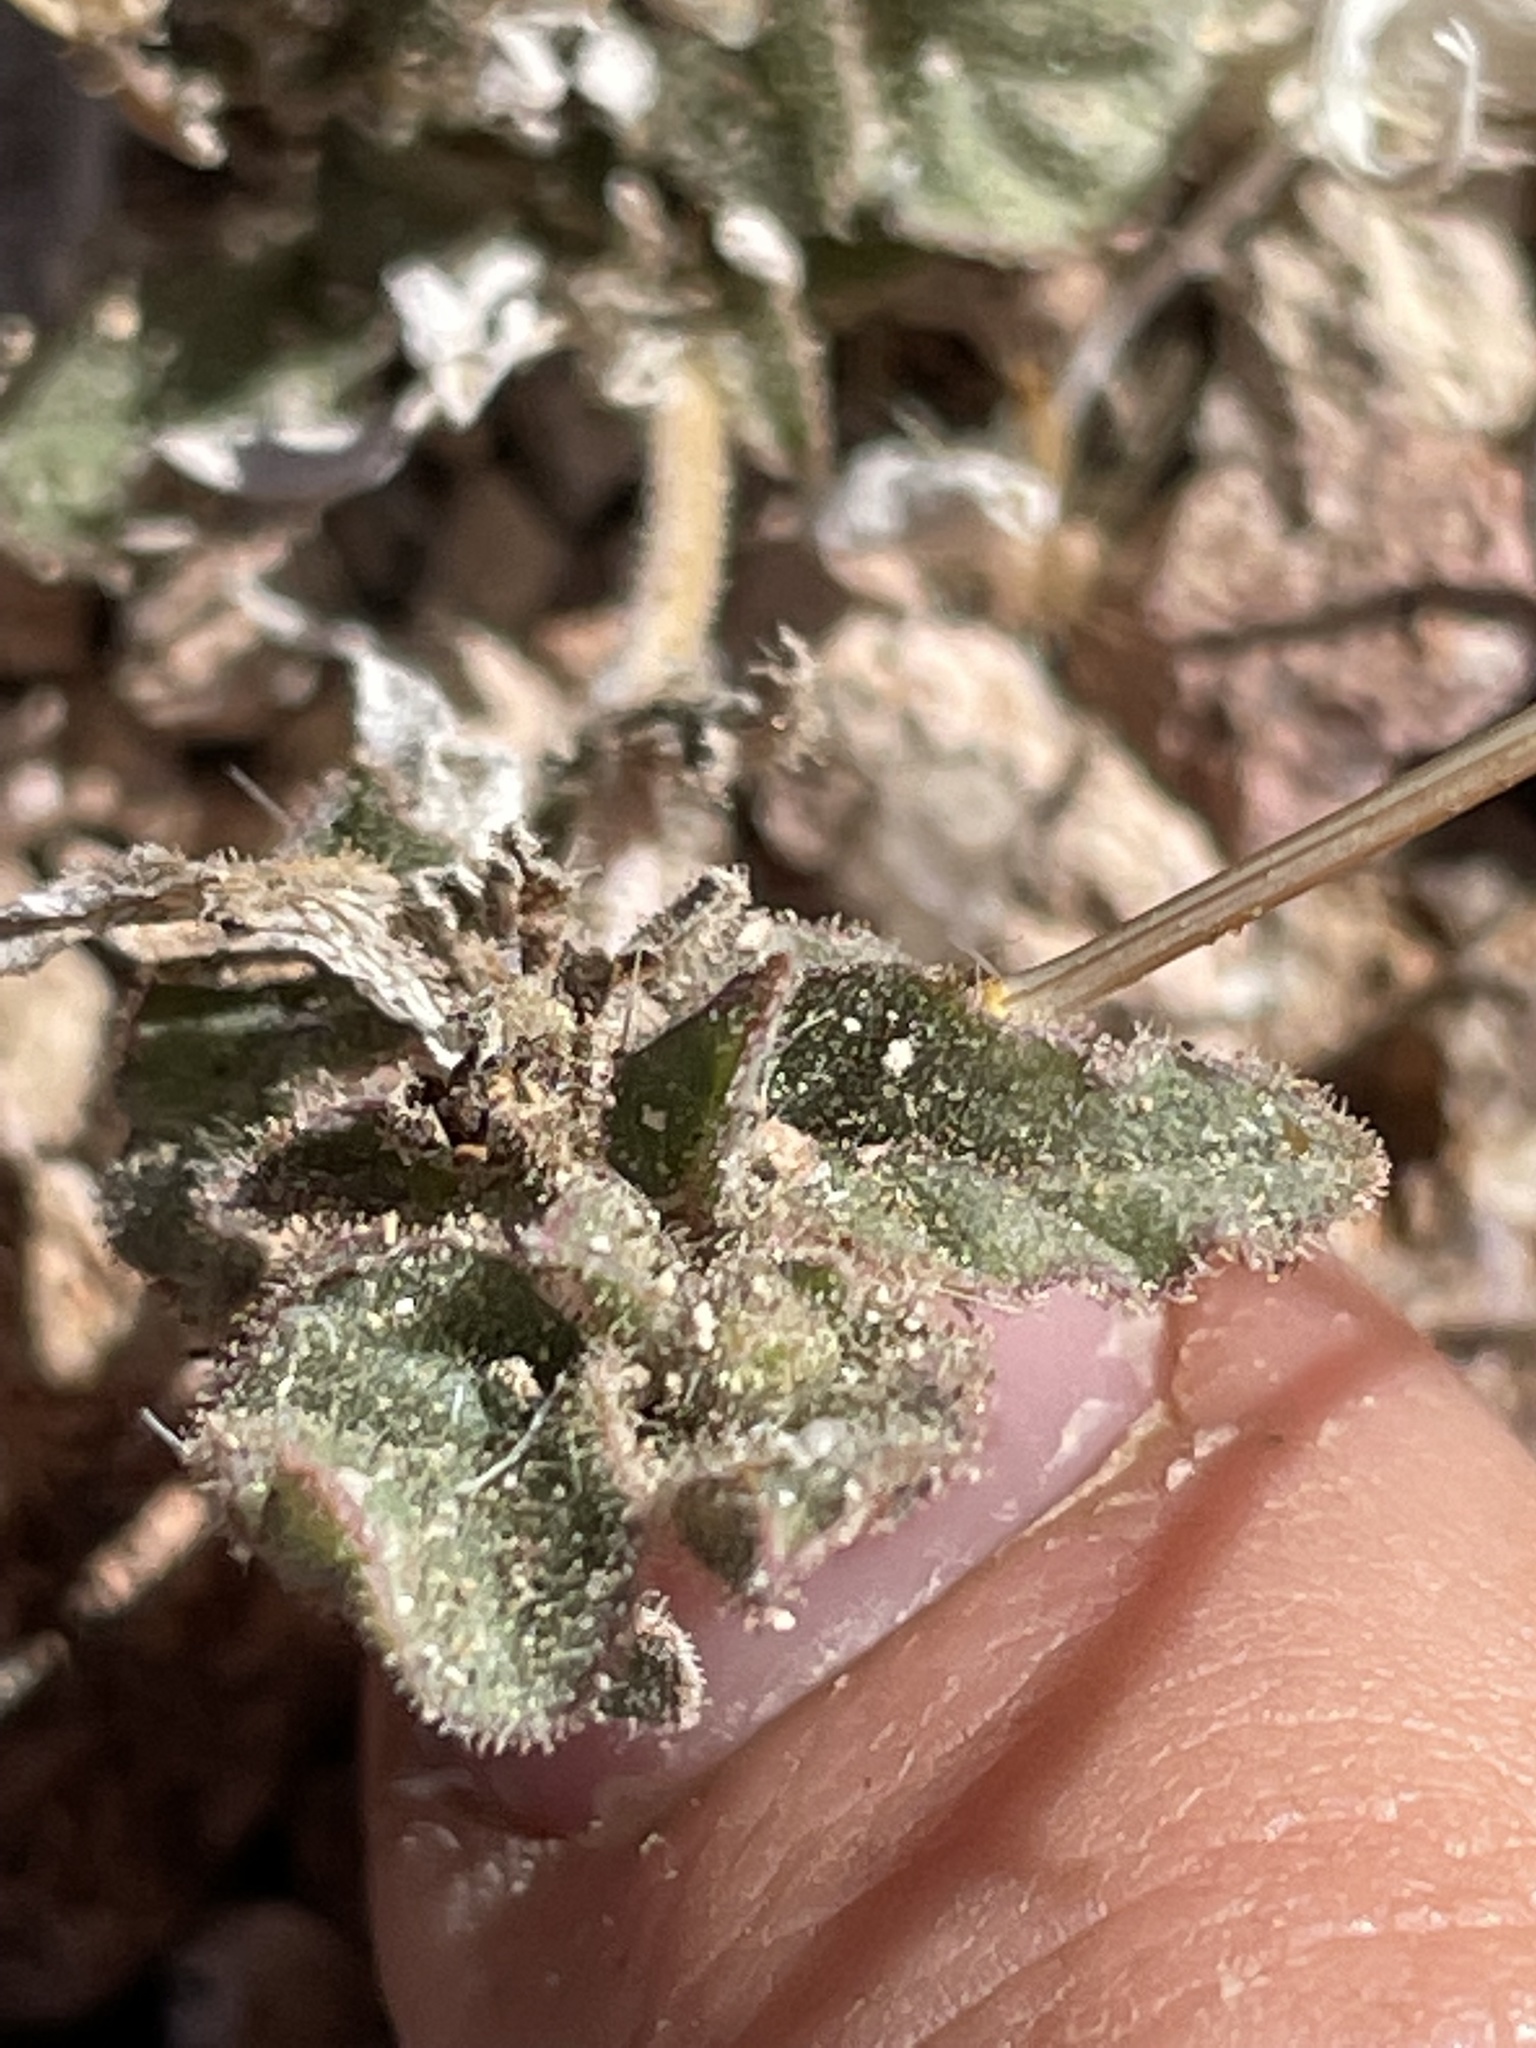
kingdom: Plantae
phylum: Tracheophyta
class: Magnoliopsida
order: Caryophyllales
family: Nyctaginaceae
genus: Allionia
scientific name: Allionia incarnata
